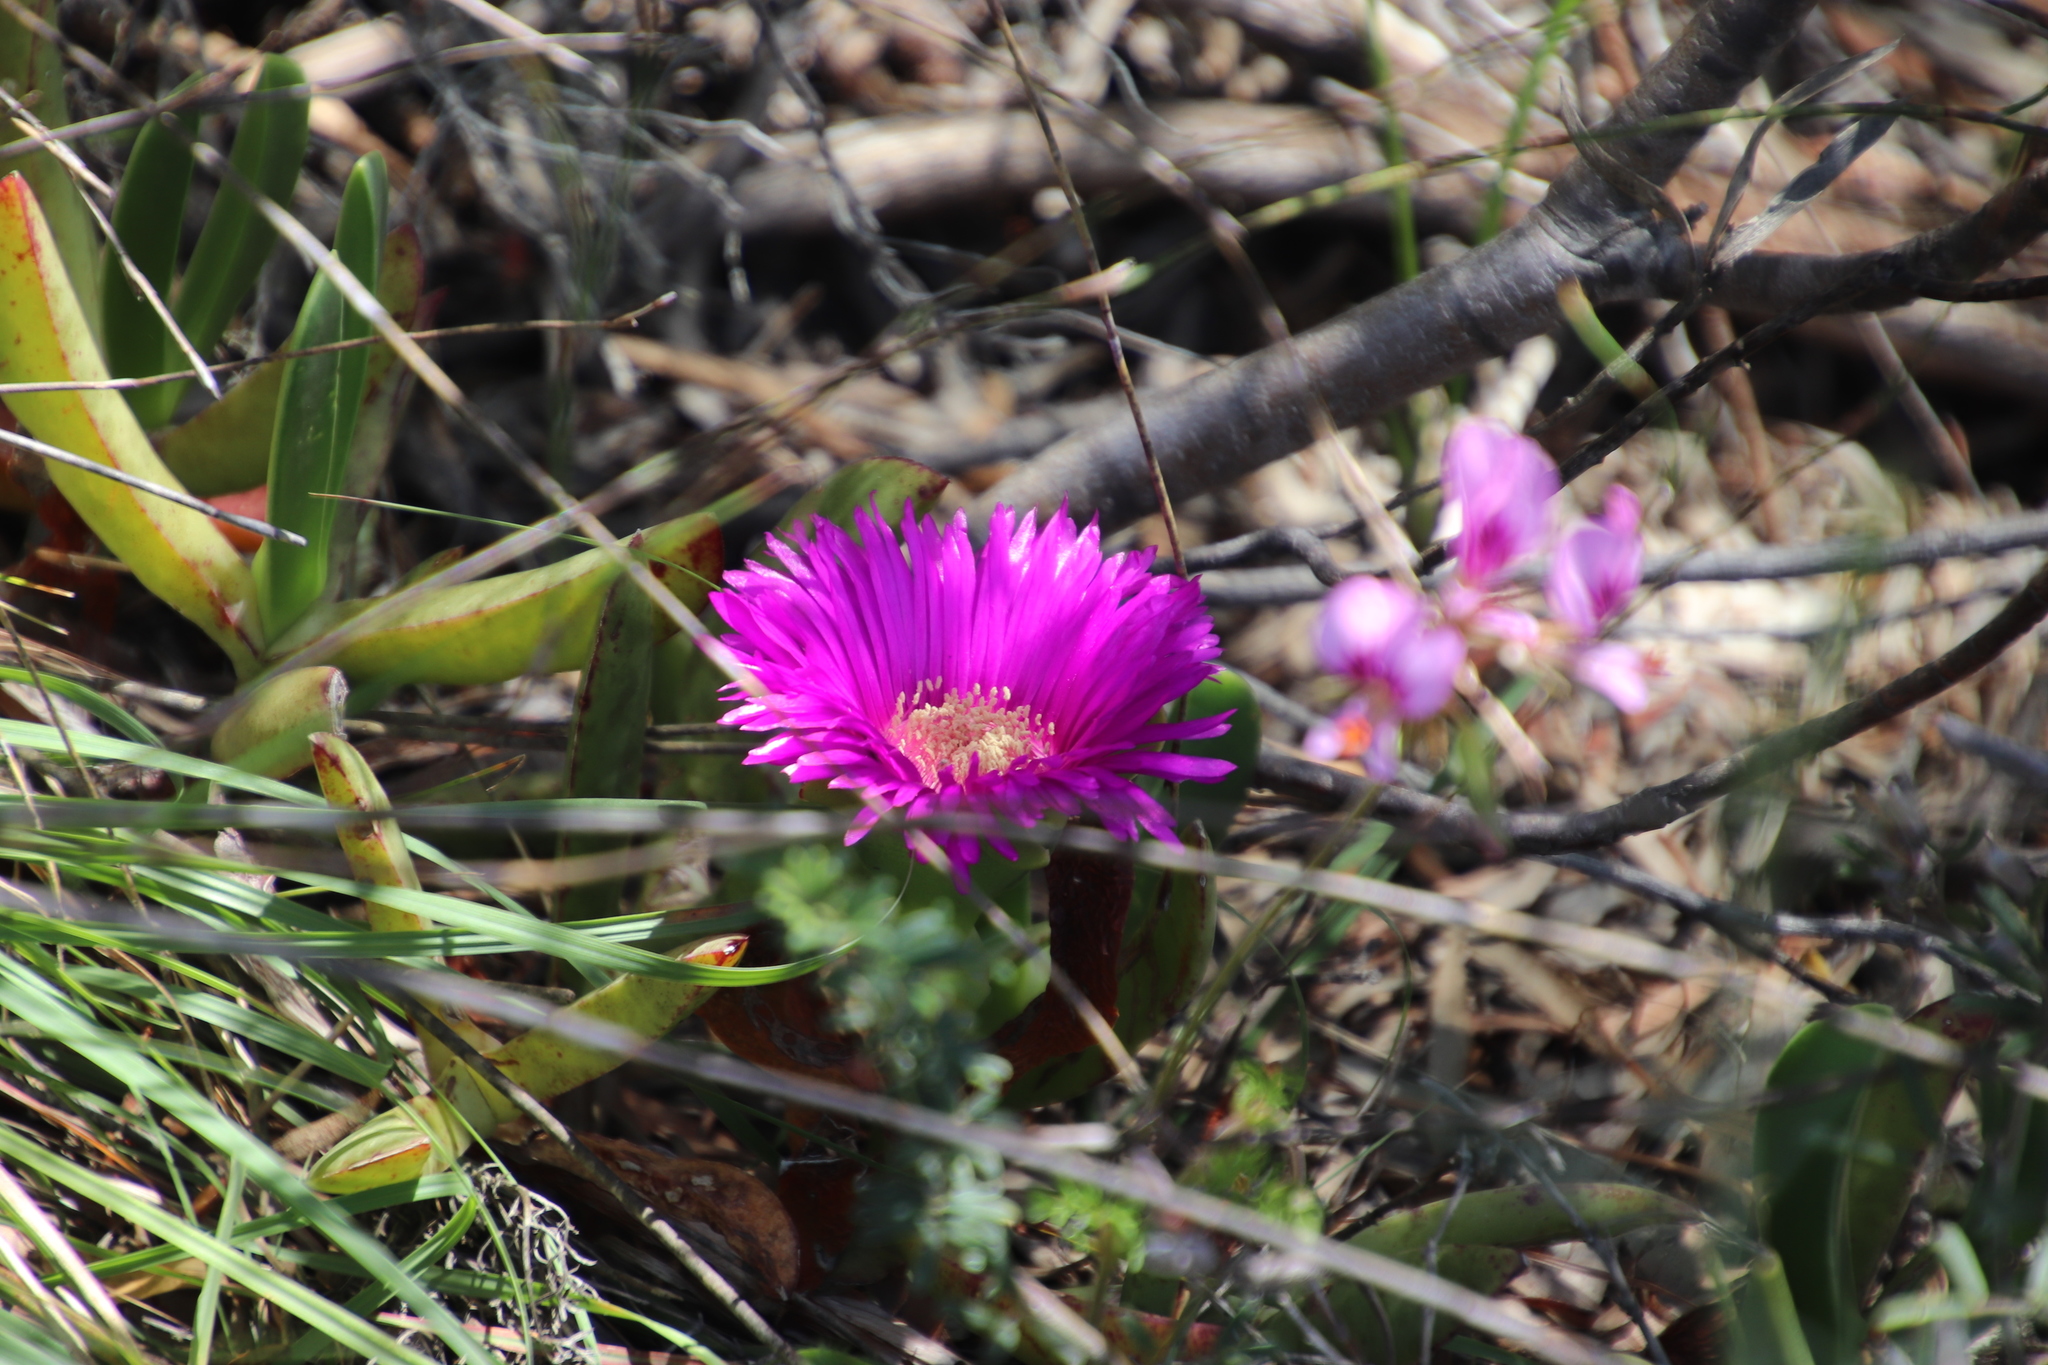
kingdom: Plantae
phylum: Tracheophyta
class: Magnoliopsida
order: Caryophyllales
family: Aizoaceae
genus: Carpobrotus
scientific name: Carpobrotus acinaciformis
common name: Sally-my-handsome
